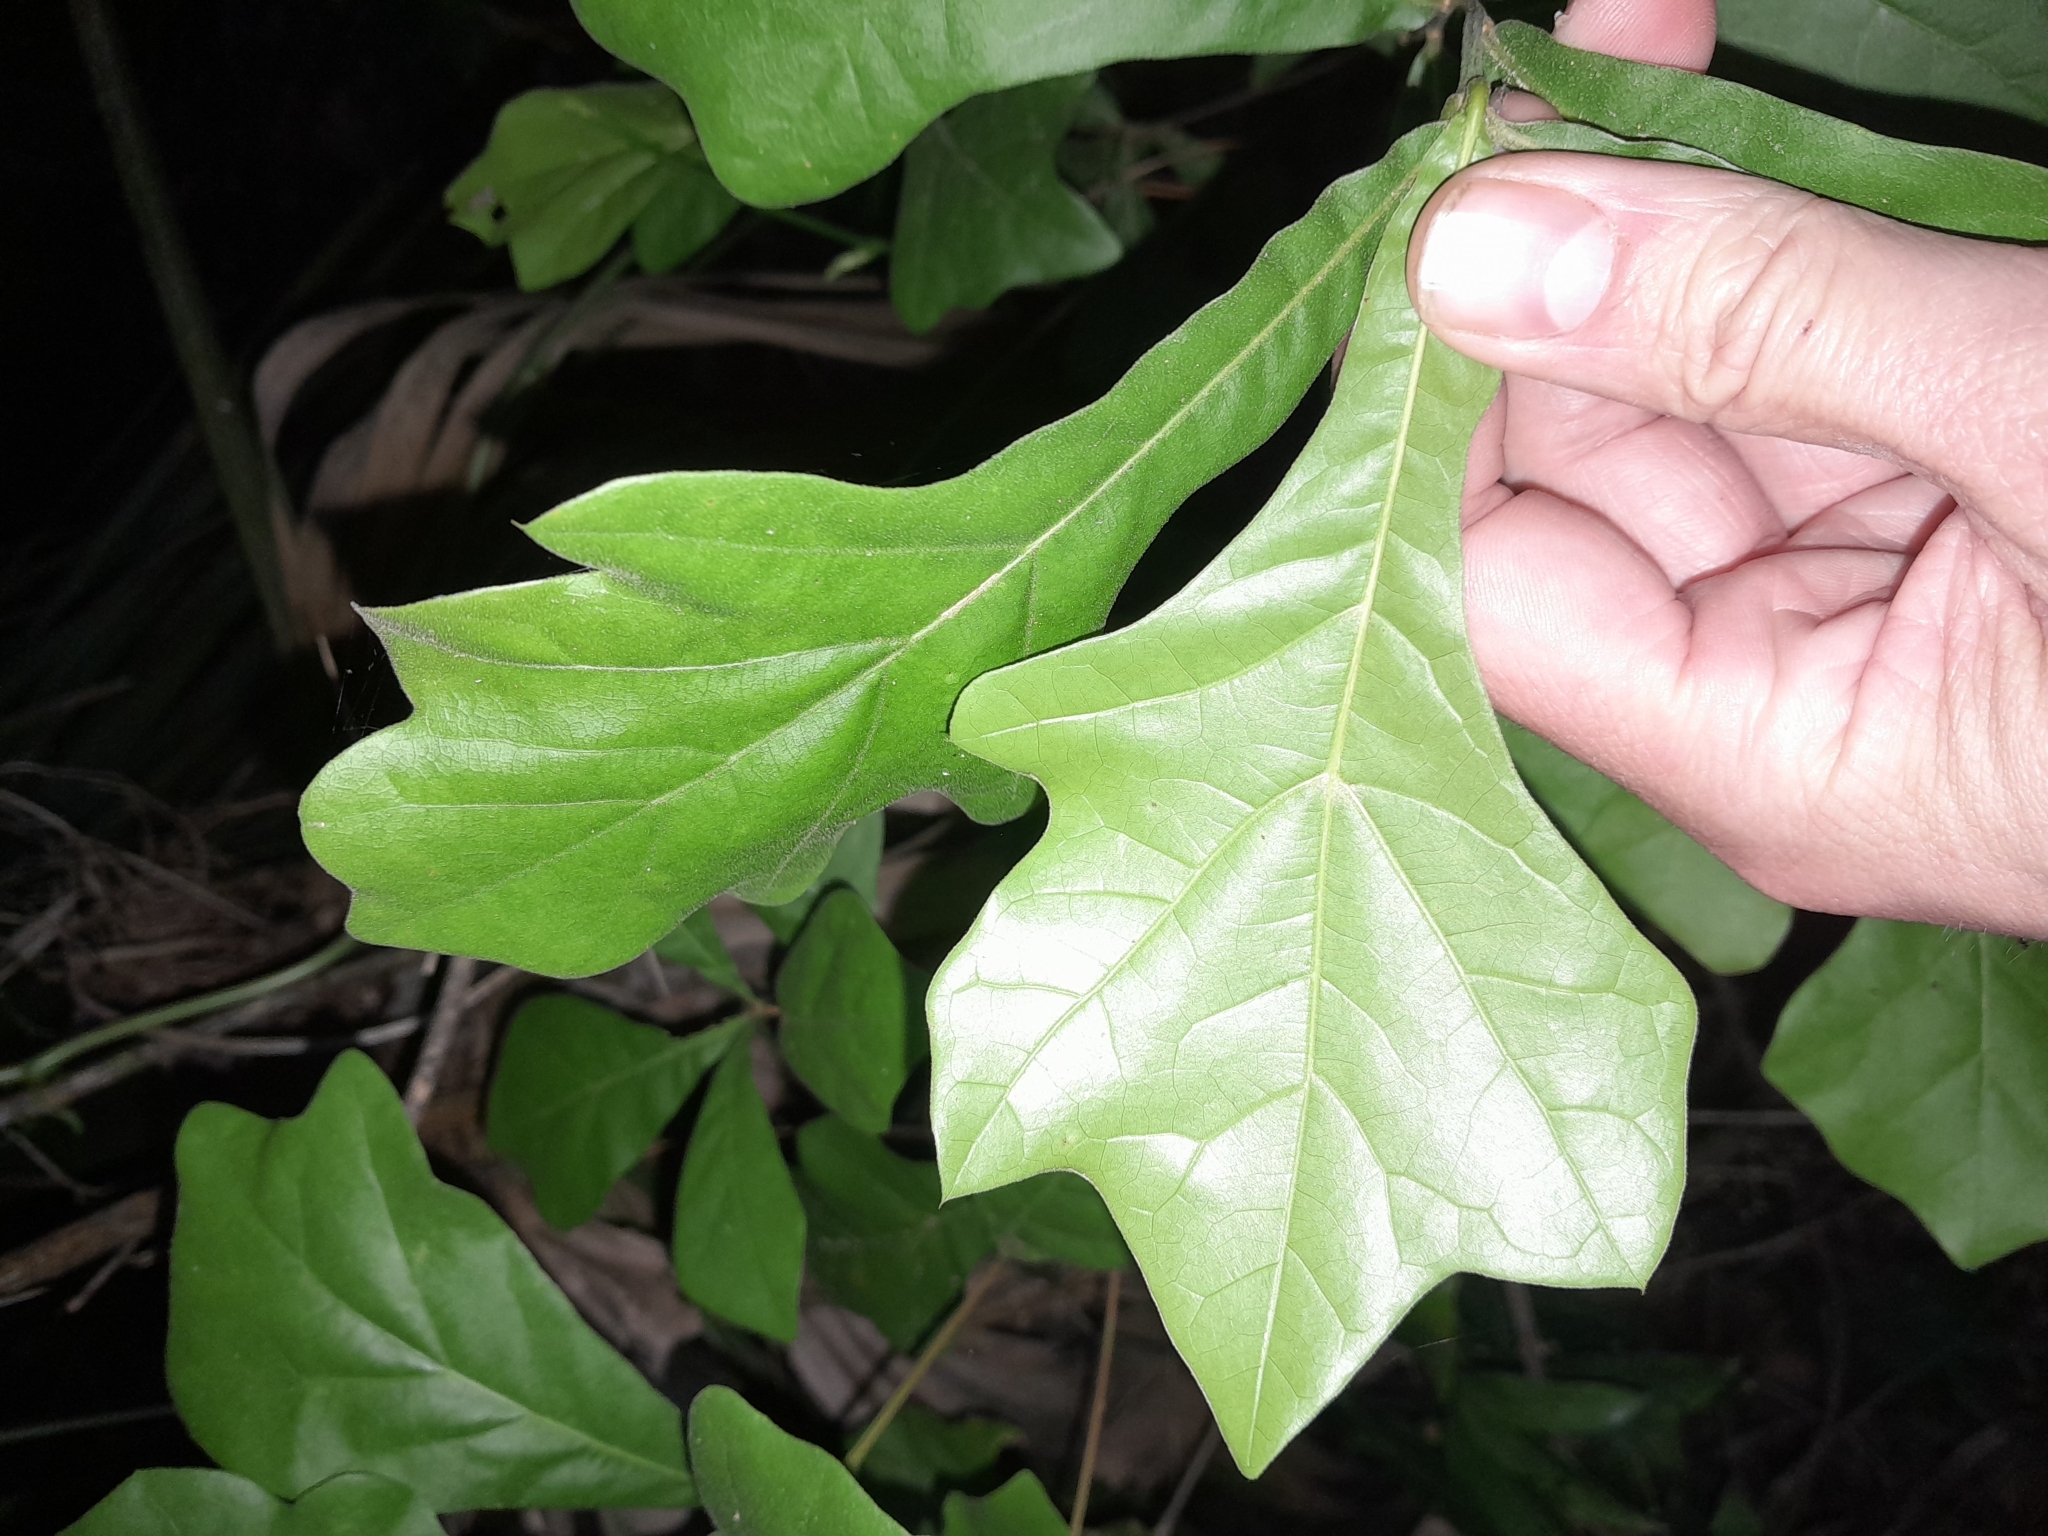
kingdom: Plantae
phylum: Tracheophyta
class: Magnoliopsida
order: Fagales
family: Fagaceae
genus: Quercus
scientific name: Quercus nigra
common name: Water oak
